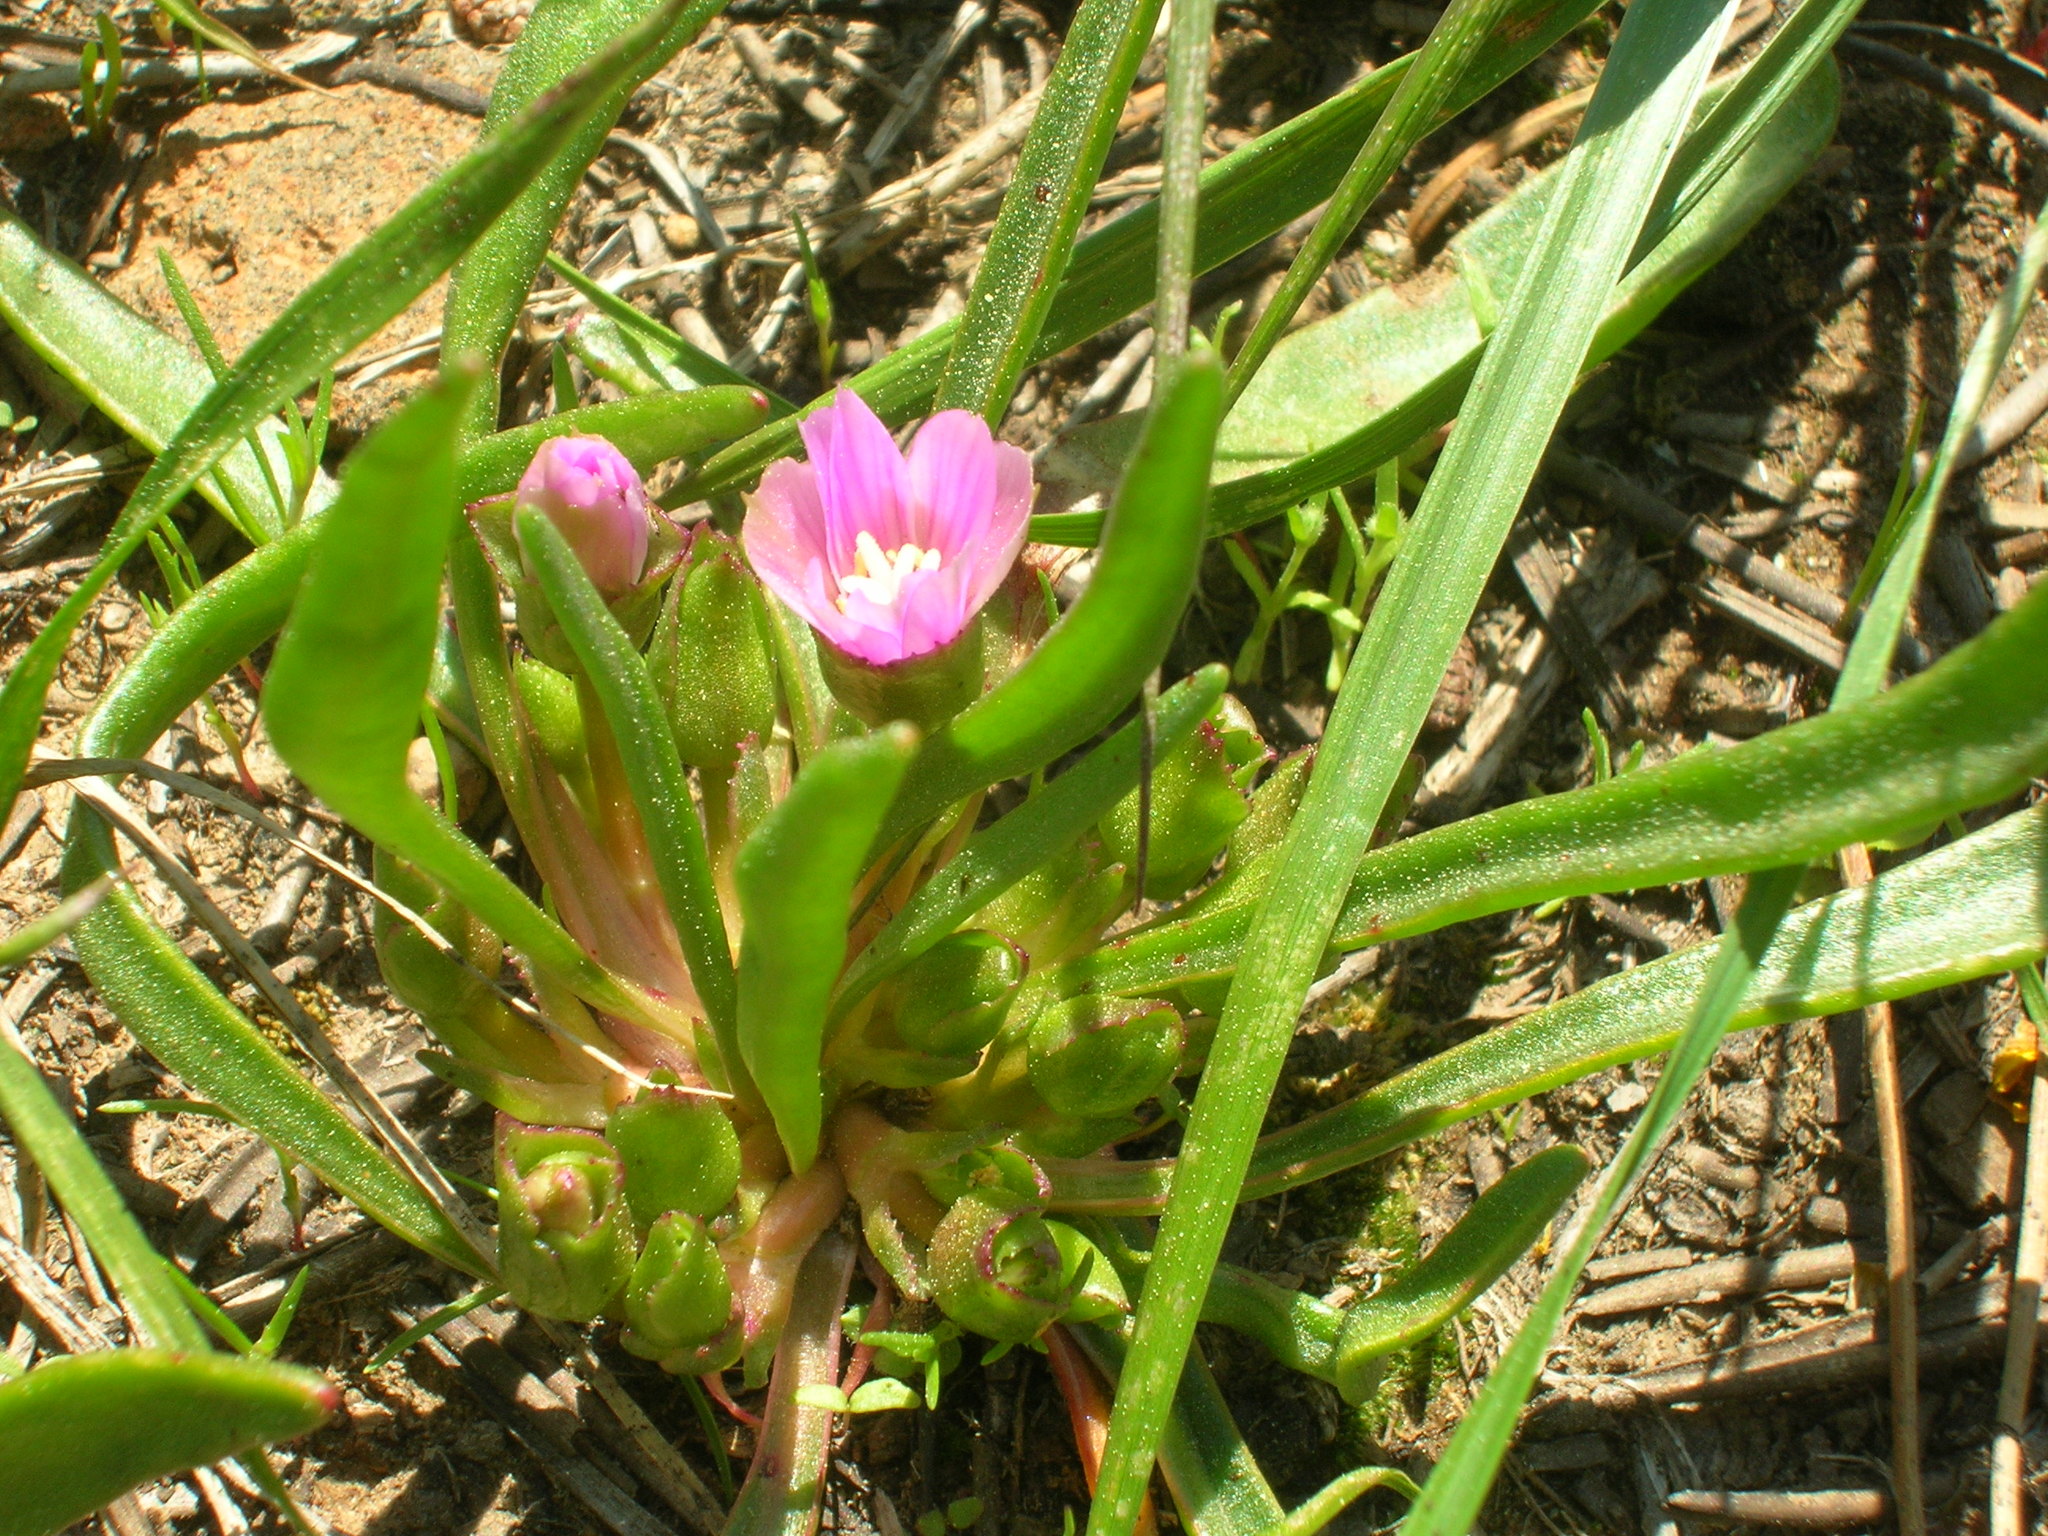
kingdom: Plantae
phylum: Tracheophyta
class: Magnoliopsida
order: Caryophyllales
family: Montiaceae
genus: Lewisia
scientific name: Lewisia pygmaea
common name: Alpine bitterroot
